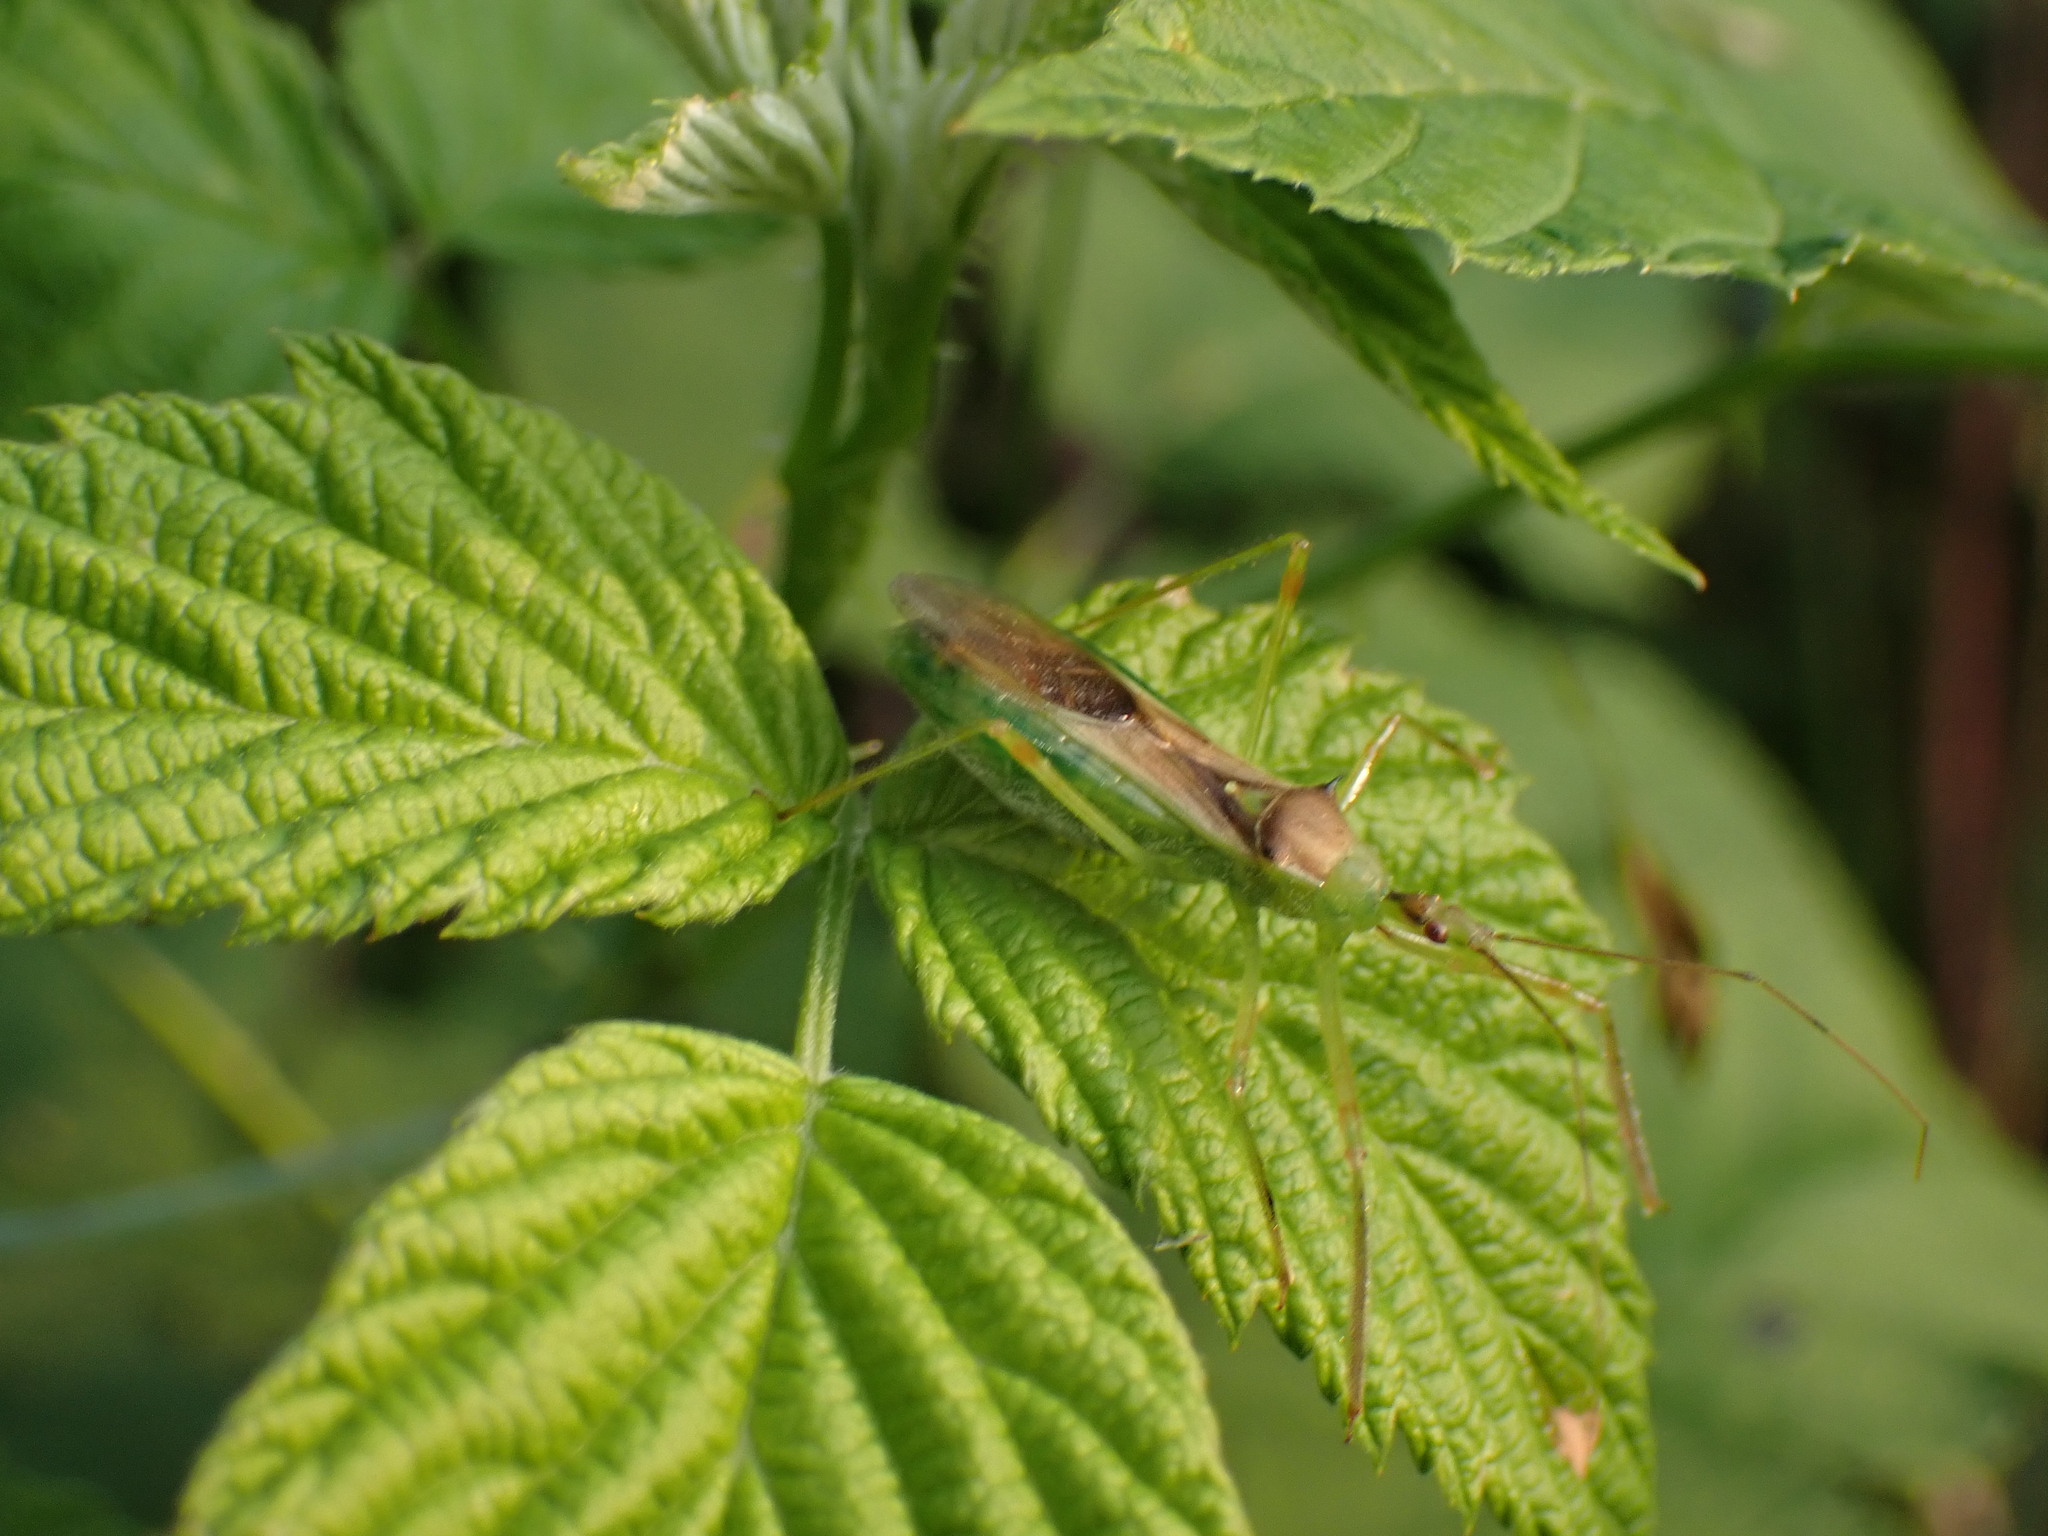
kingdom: Animalia
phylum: Arthropoda
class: Insecta
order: Hemiptera
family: Reduviidae
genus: Zelus
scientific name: Zelus luridus
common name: Pale green assassin bug
